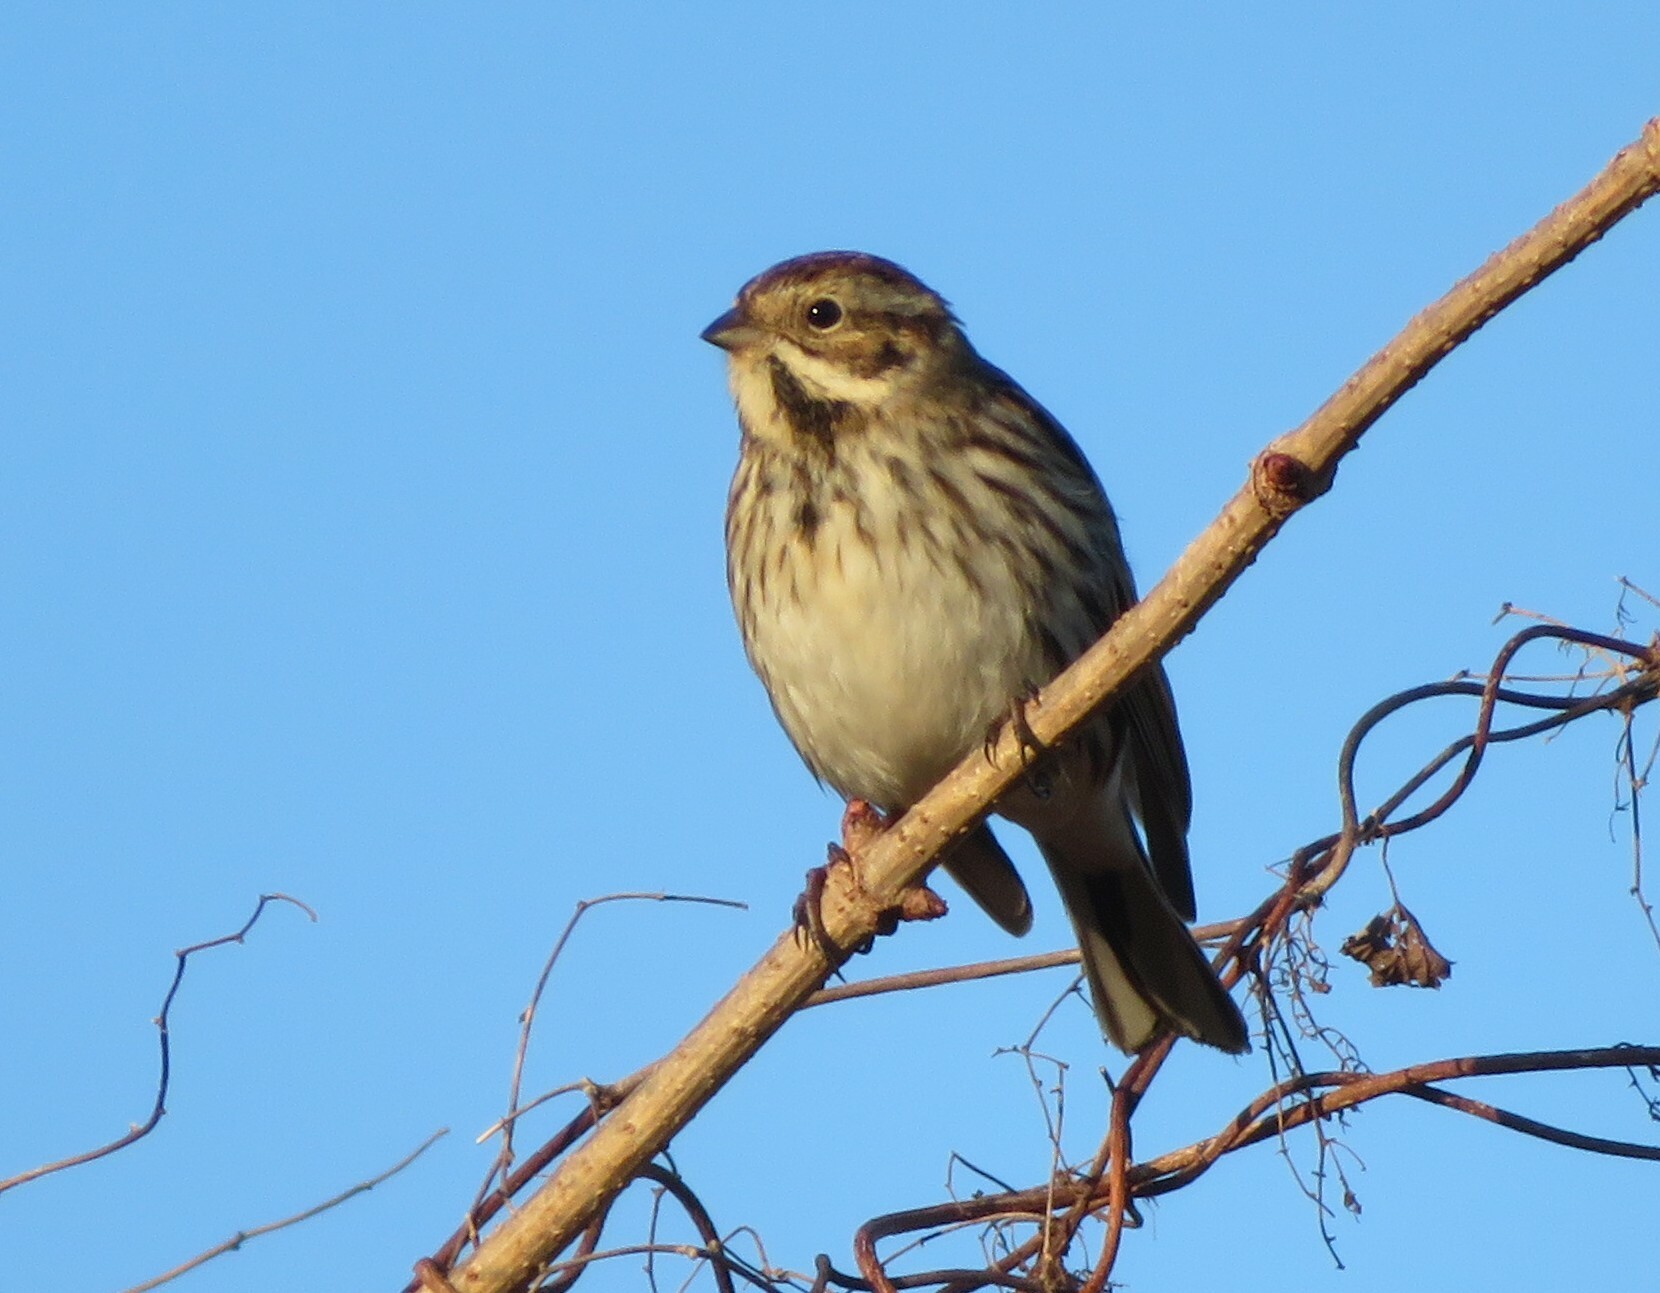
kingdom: Animalia
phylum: Chordata
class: Aves
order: Passeriformes
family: Emberizidae
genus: Emberiza
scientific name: Emberiza schoeniclus
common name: Reed bunting
